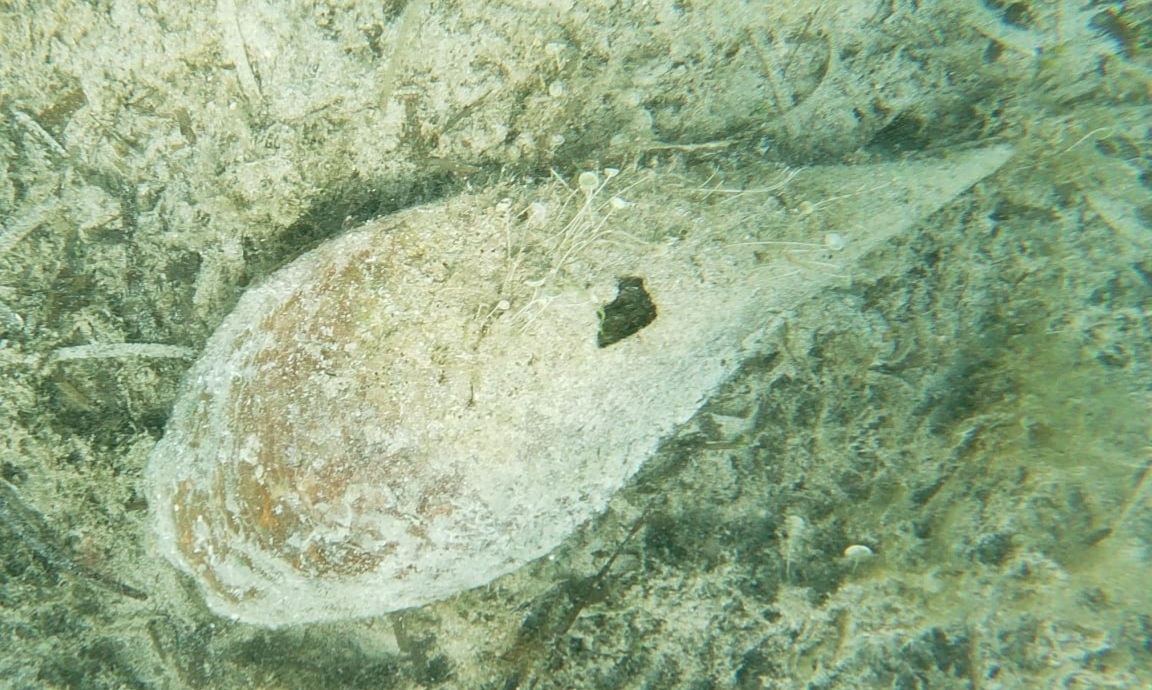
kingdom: Animalia
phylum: Mollusca
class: Bivalvia
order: Ostreida
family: Pinnidae
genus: Pinna
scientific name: Pinna nobilis
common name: Fan mussel
